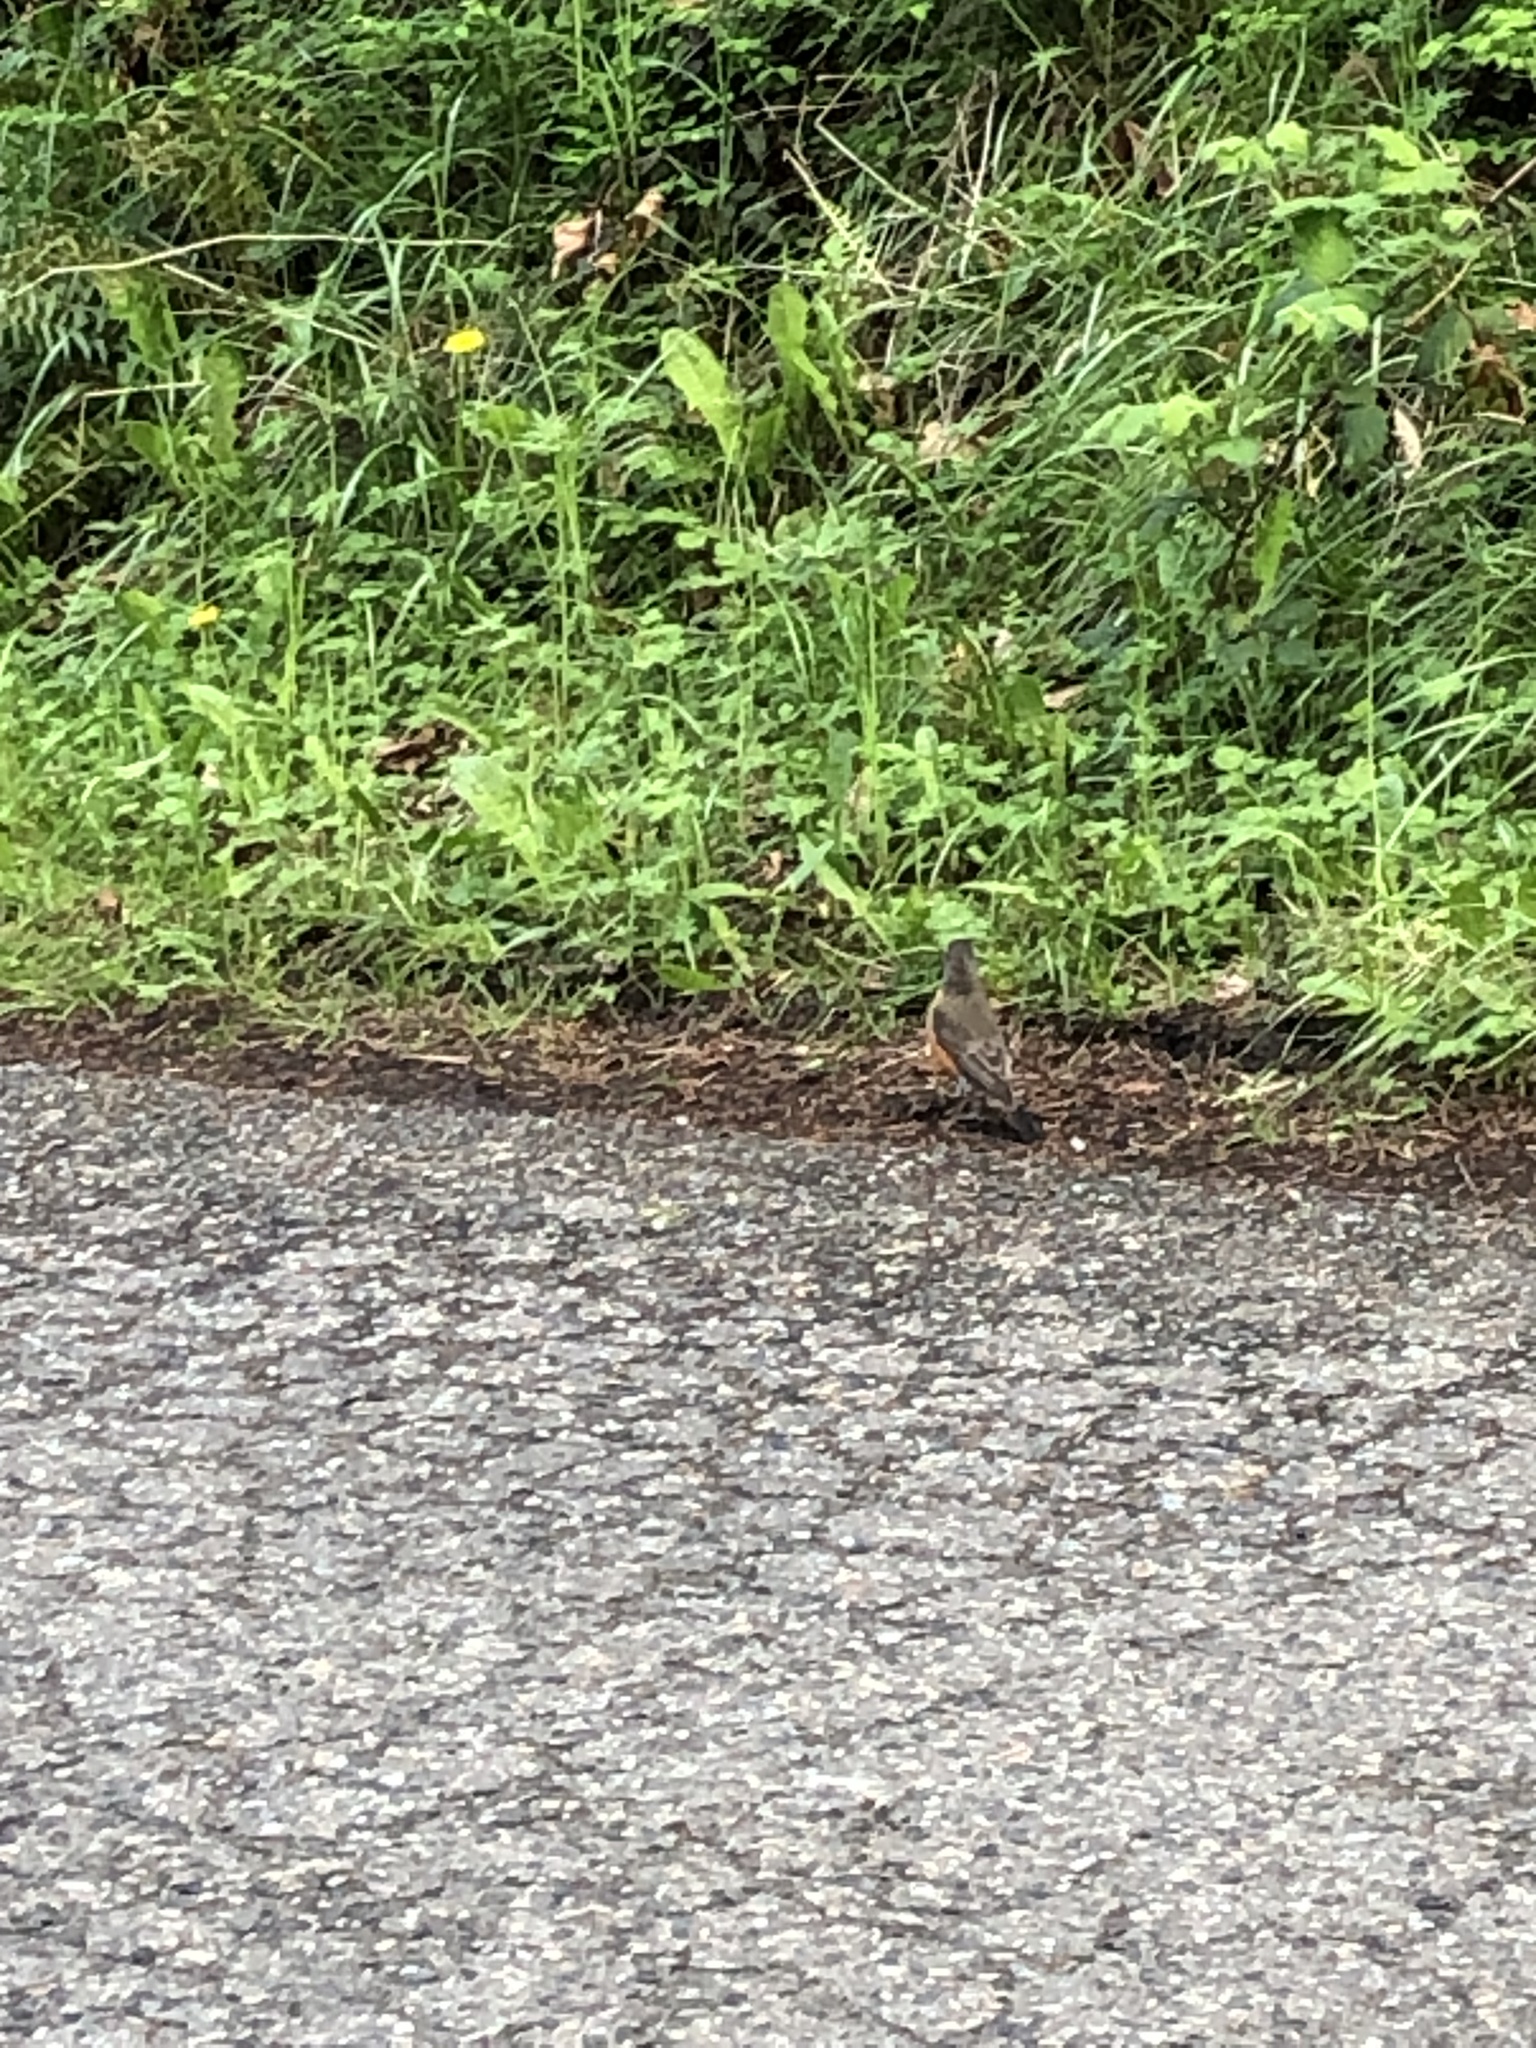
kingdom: Animalia
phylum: Chordata
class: Aves
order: Passeriformes
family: Turdidae
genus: Turdus
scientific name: Turdus migratorius
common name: American robin
